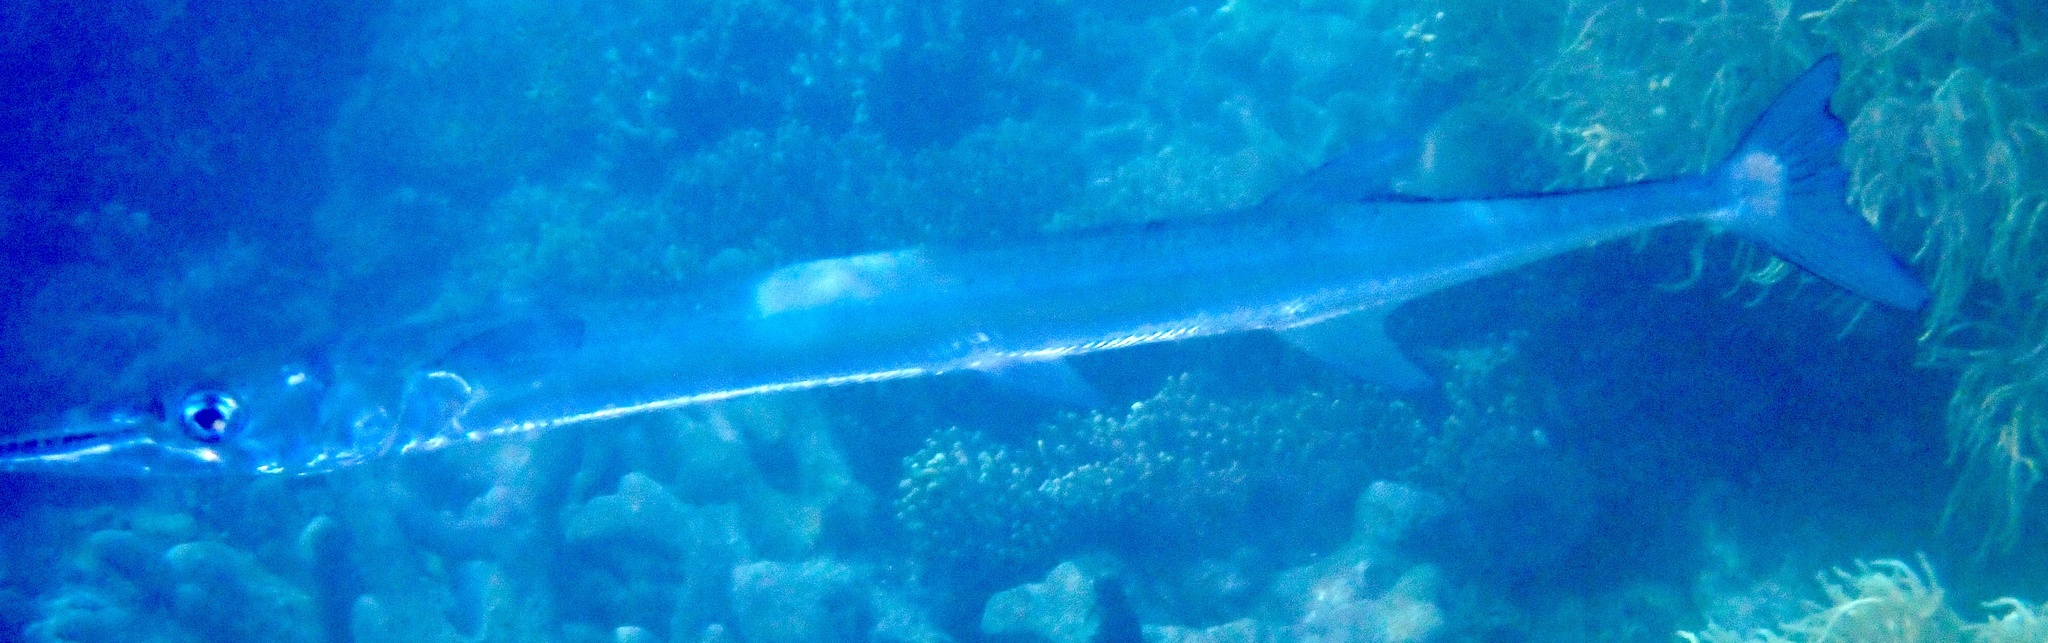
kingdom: Animalia
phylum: Chordata
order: Beloniformes
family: Belonidae
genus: Tylosurus
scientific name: Tylosurus crocodilus
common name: Houndfish
